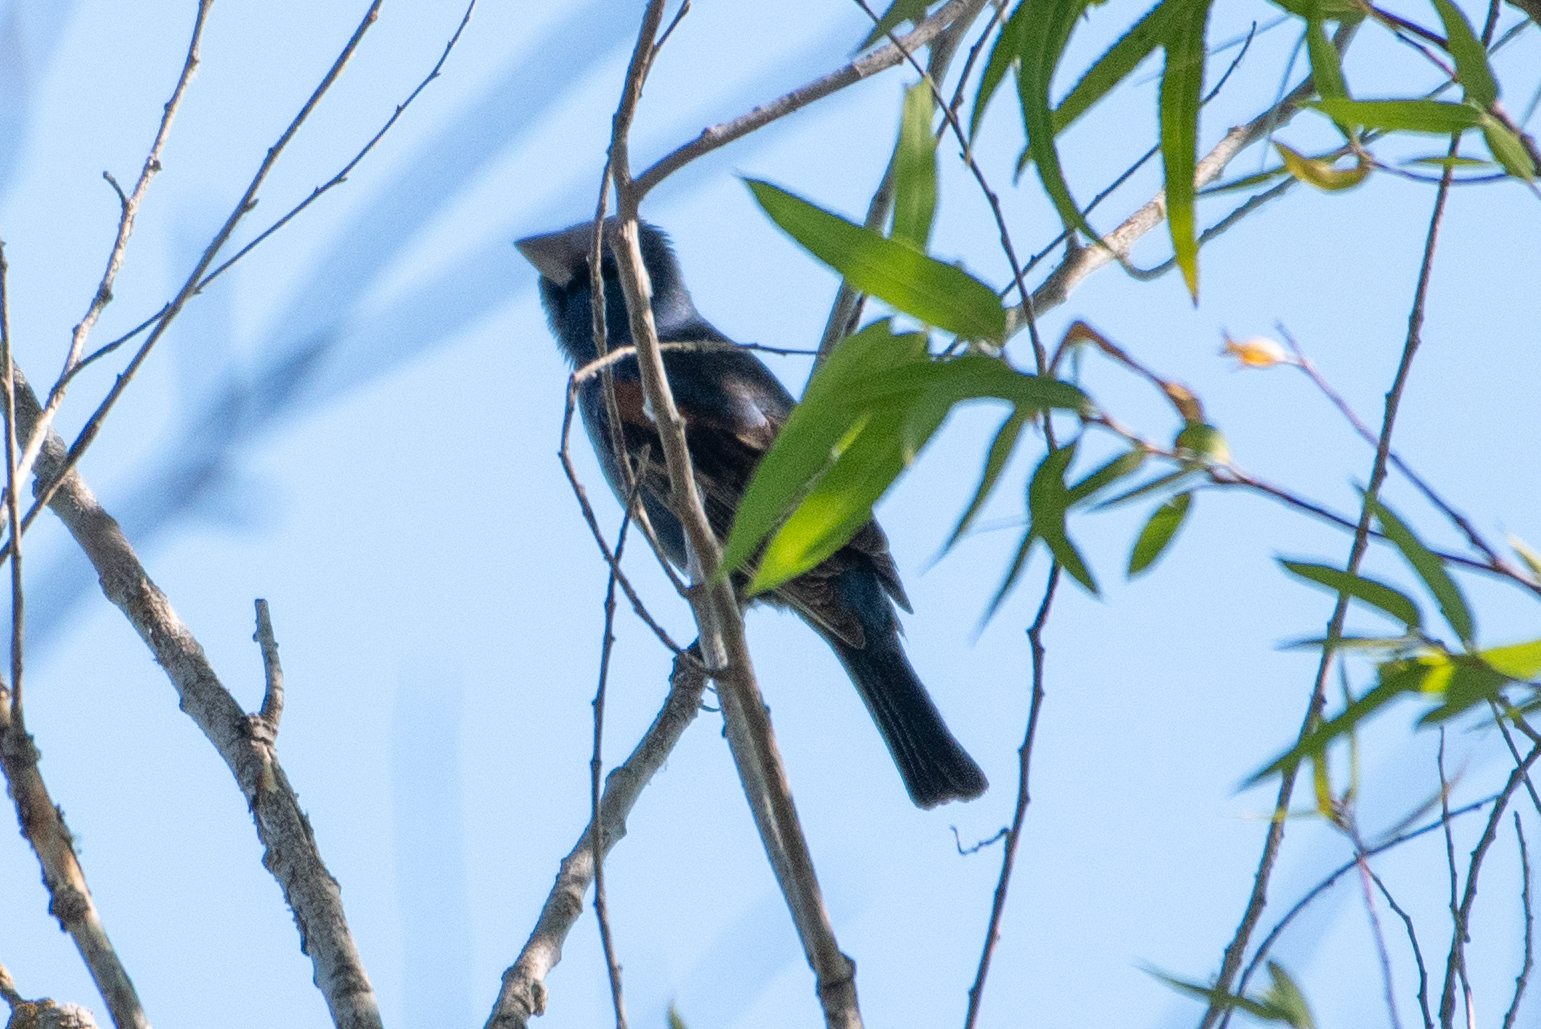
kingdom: Animalia
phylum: Chordata
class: Aves
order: Passeriformes
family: Cardinalidae
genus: Passerina
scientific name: Passerina caerulea
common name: Blue grosbeak
